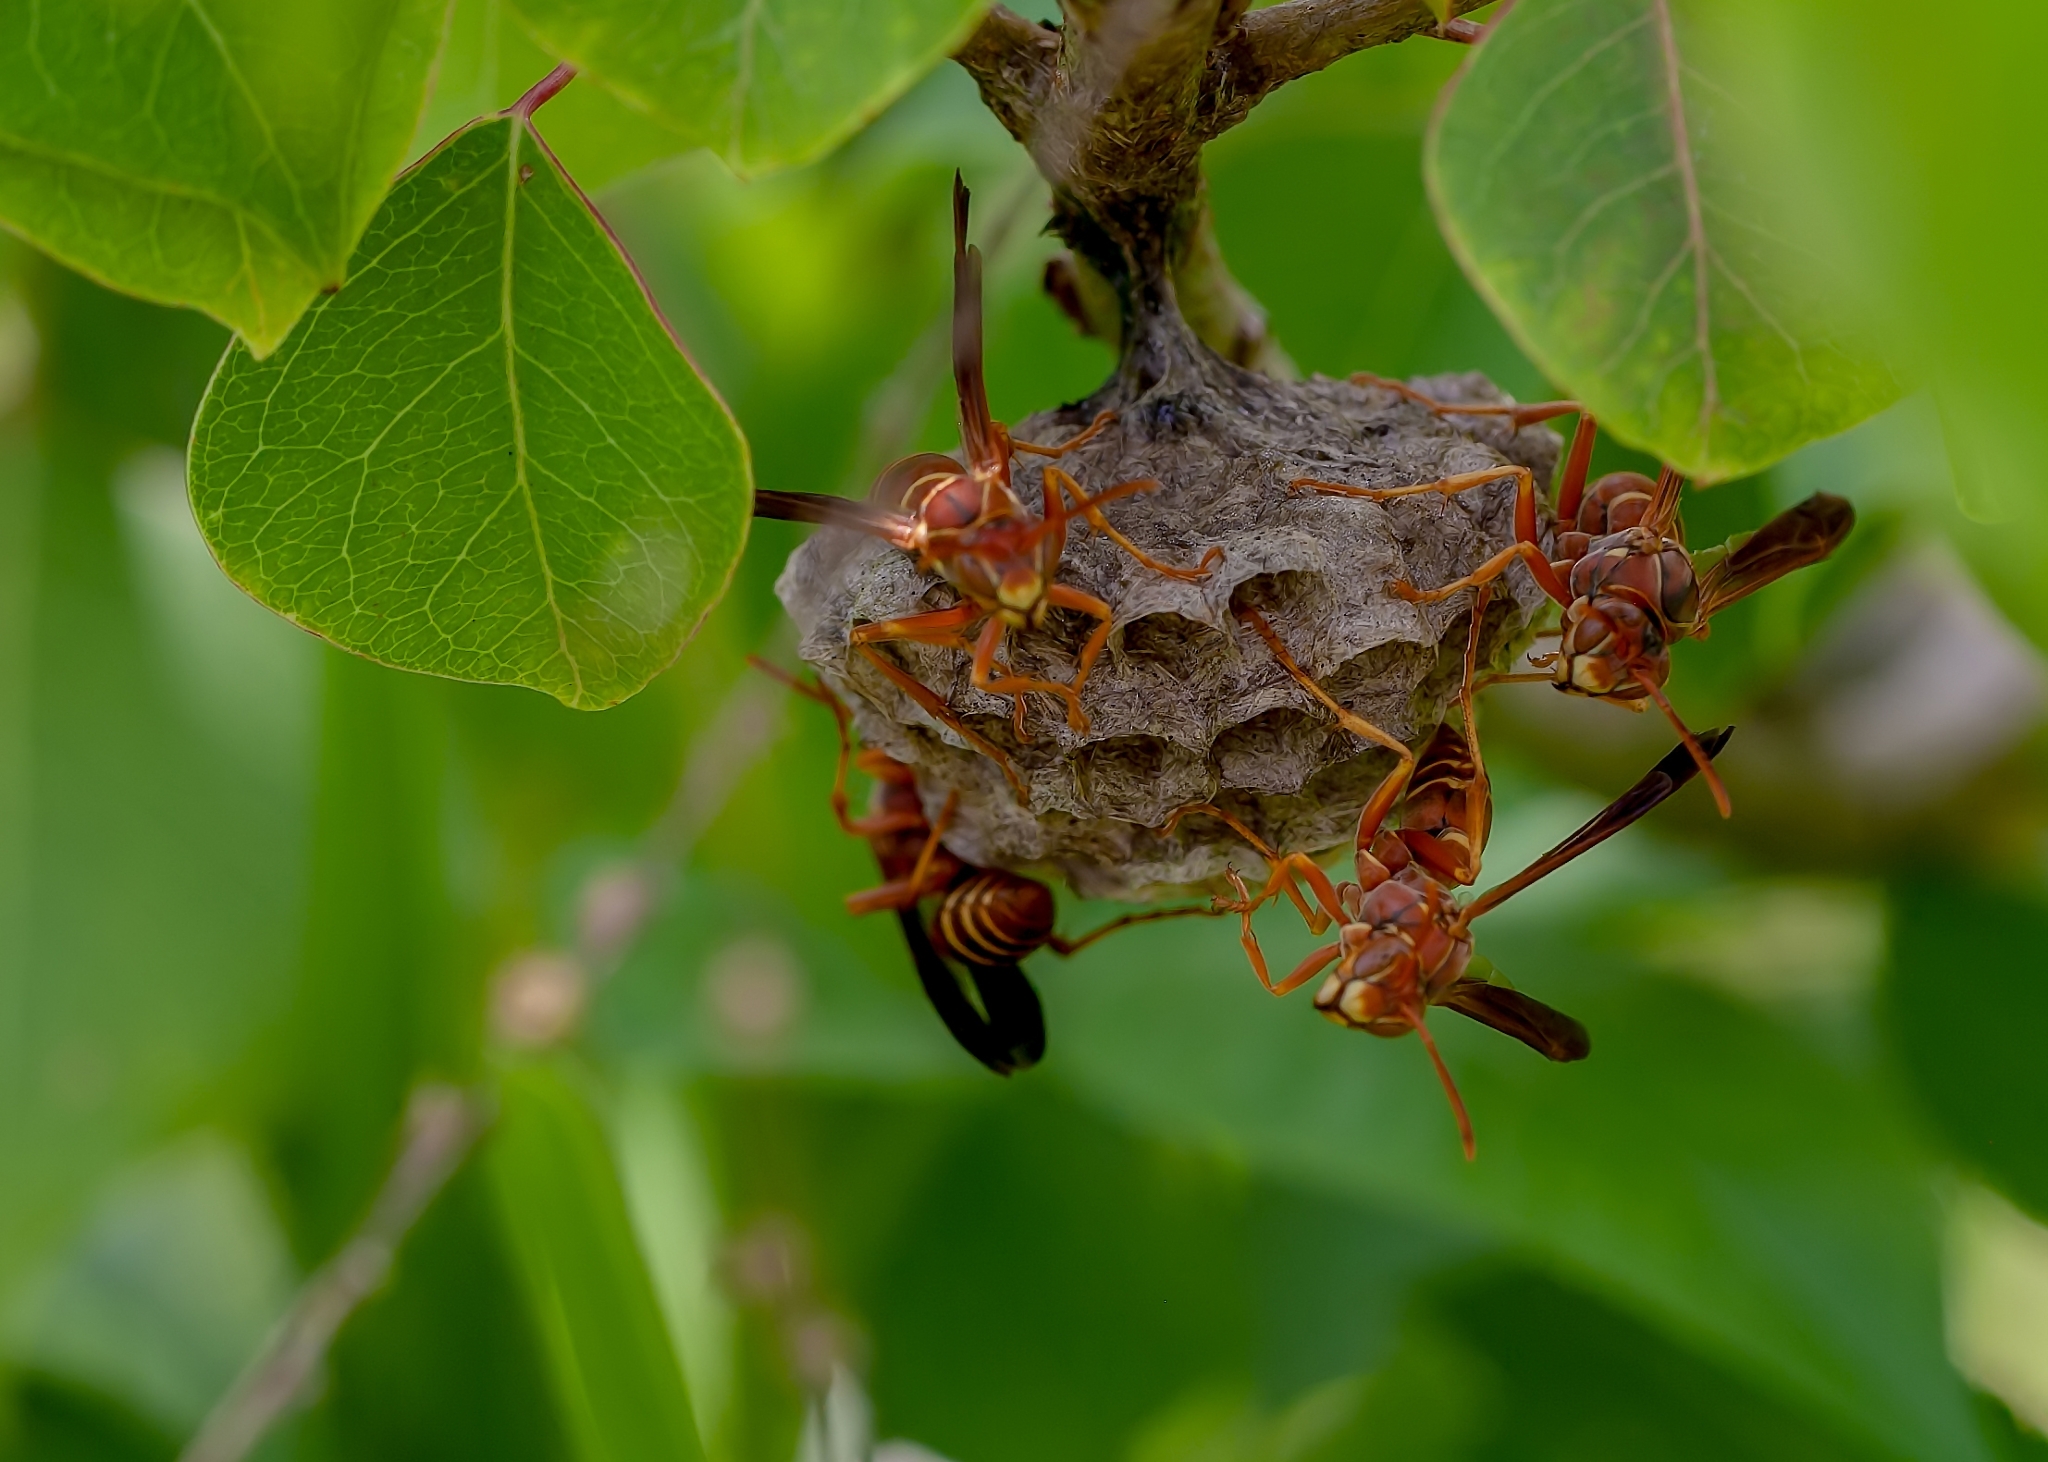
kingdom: Animalia
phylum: Arthropoda
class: Insecta
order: Hymenoptera
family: Eumenidae
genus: Polistes
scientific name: Polistes bellicosus
